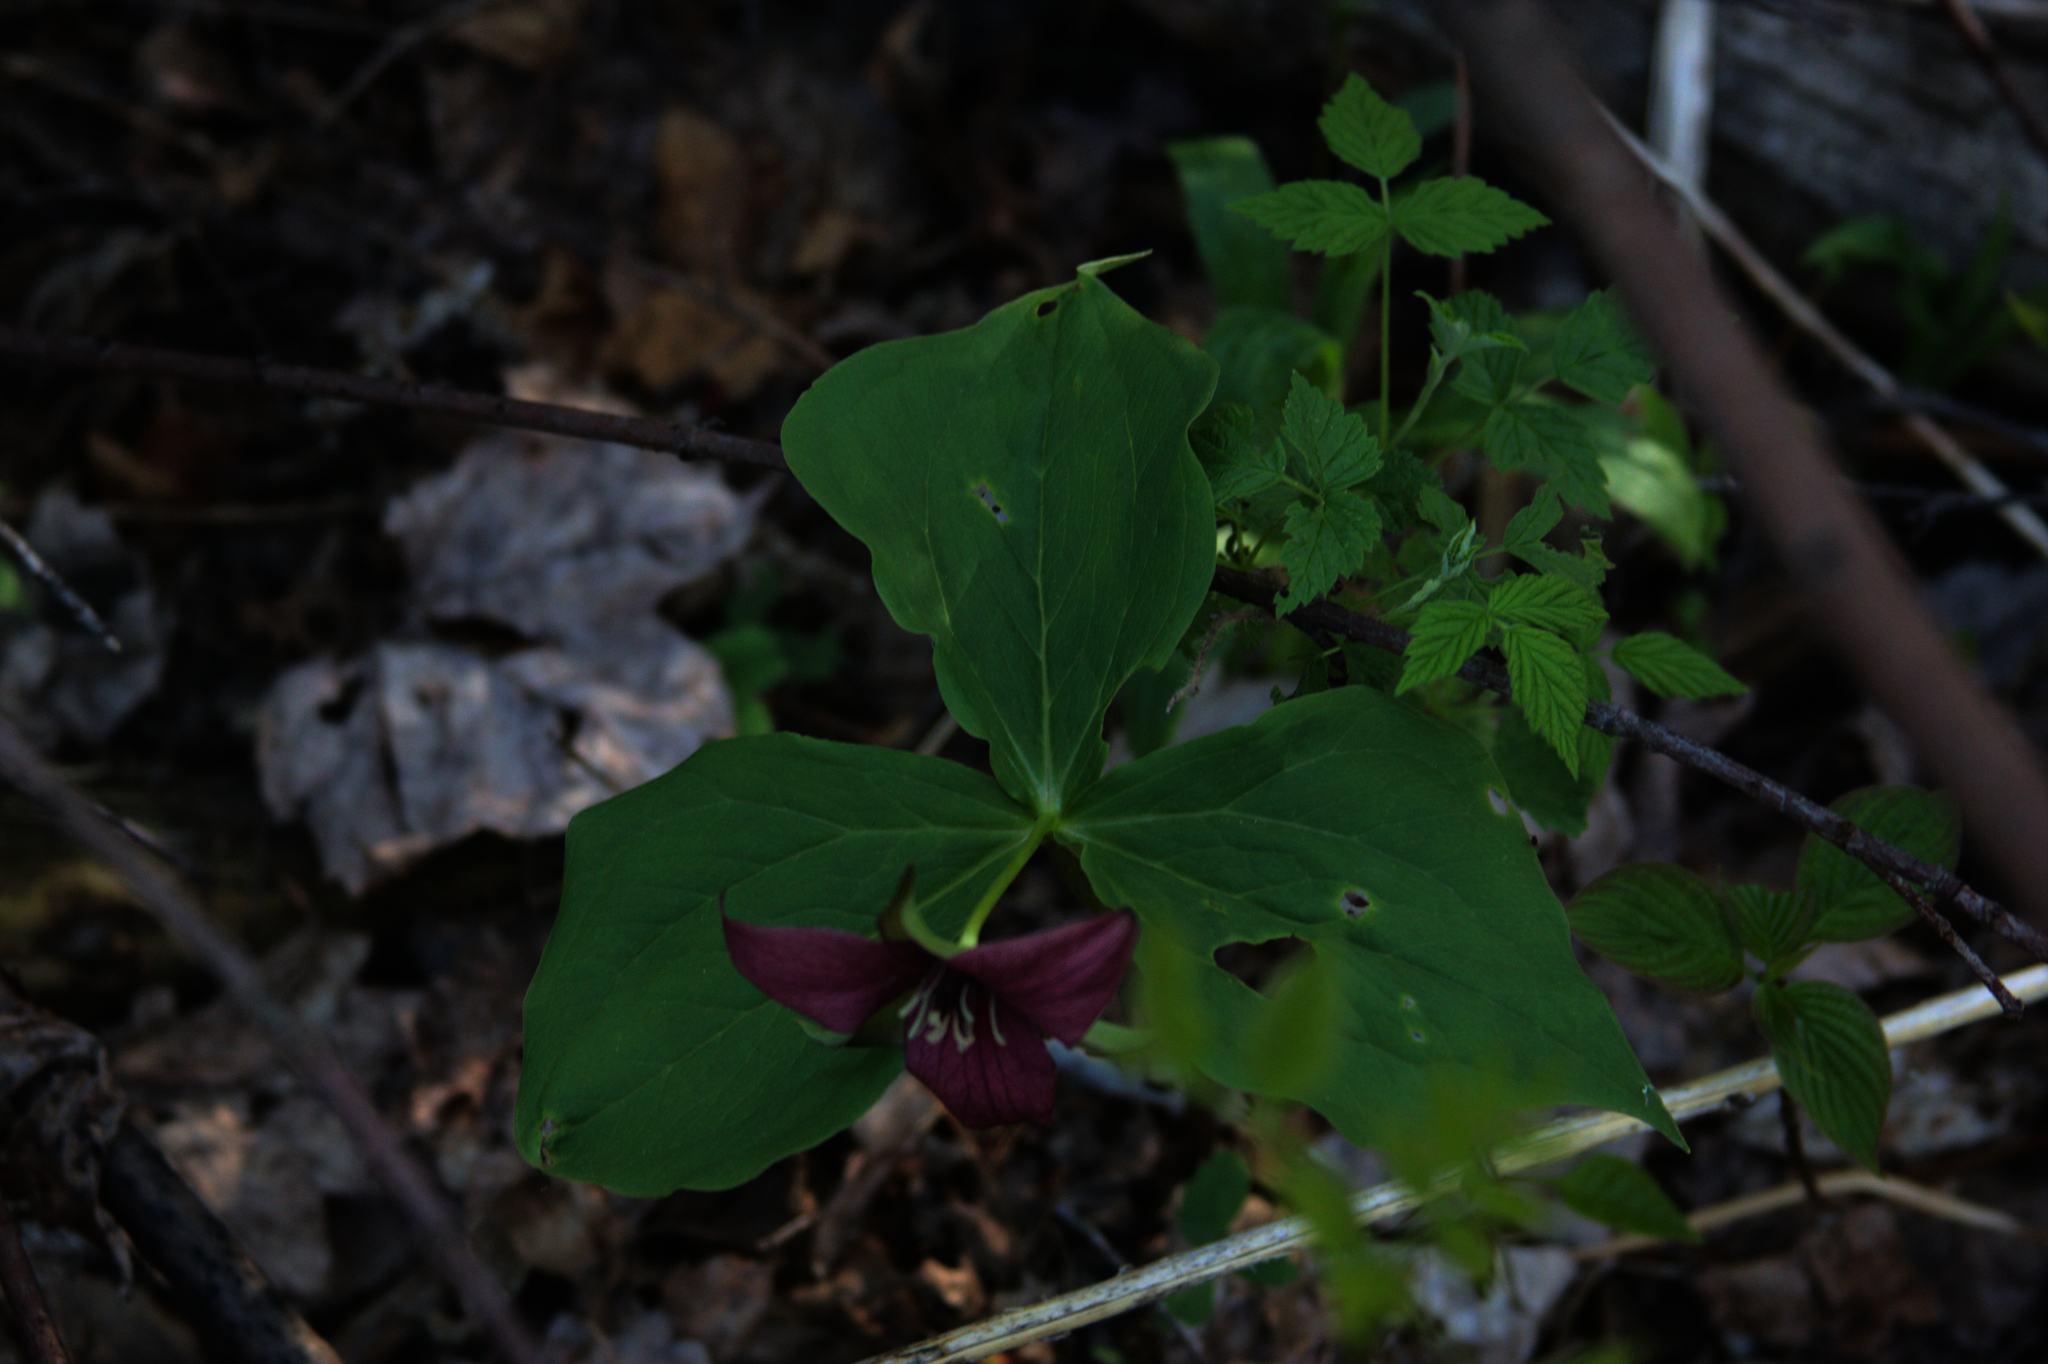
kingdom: Plantae
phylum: Tracheophyta
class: Liliopsida
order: Liliales
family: Melanthiaceae
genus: Trillium
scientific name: Trillium erectum
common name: Purple trillium
